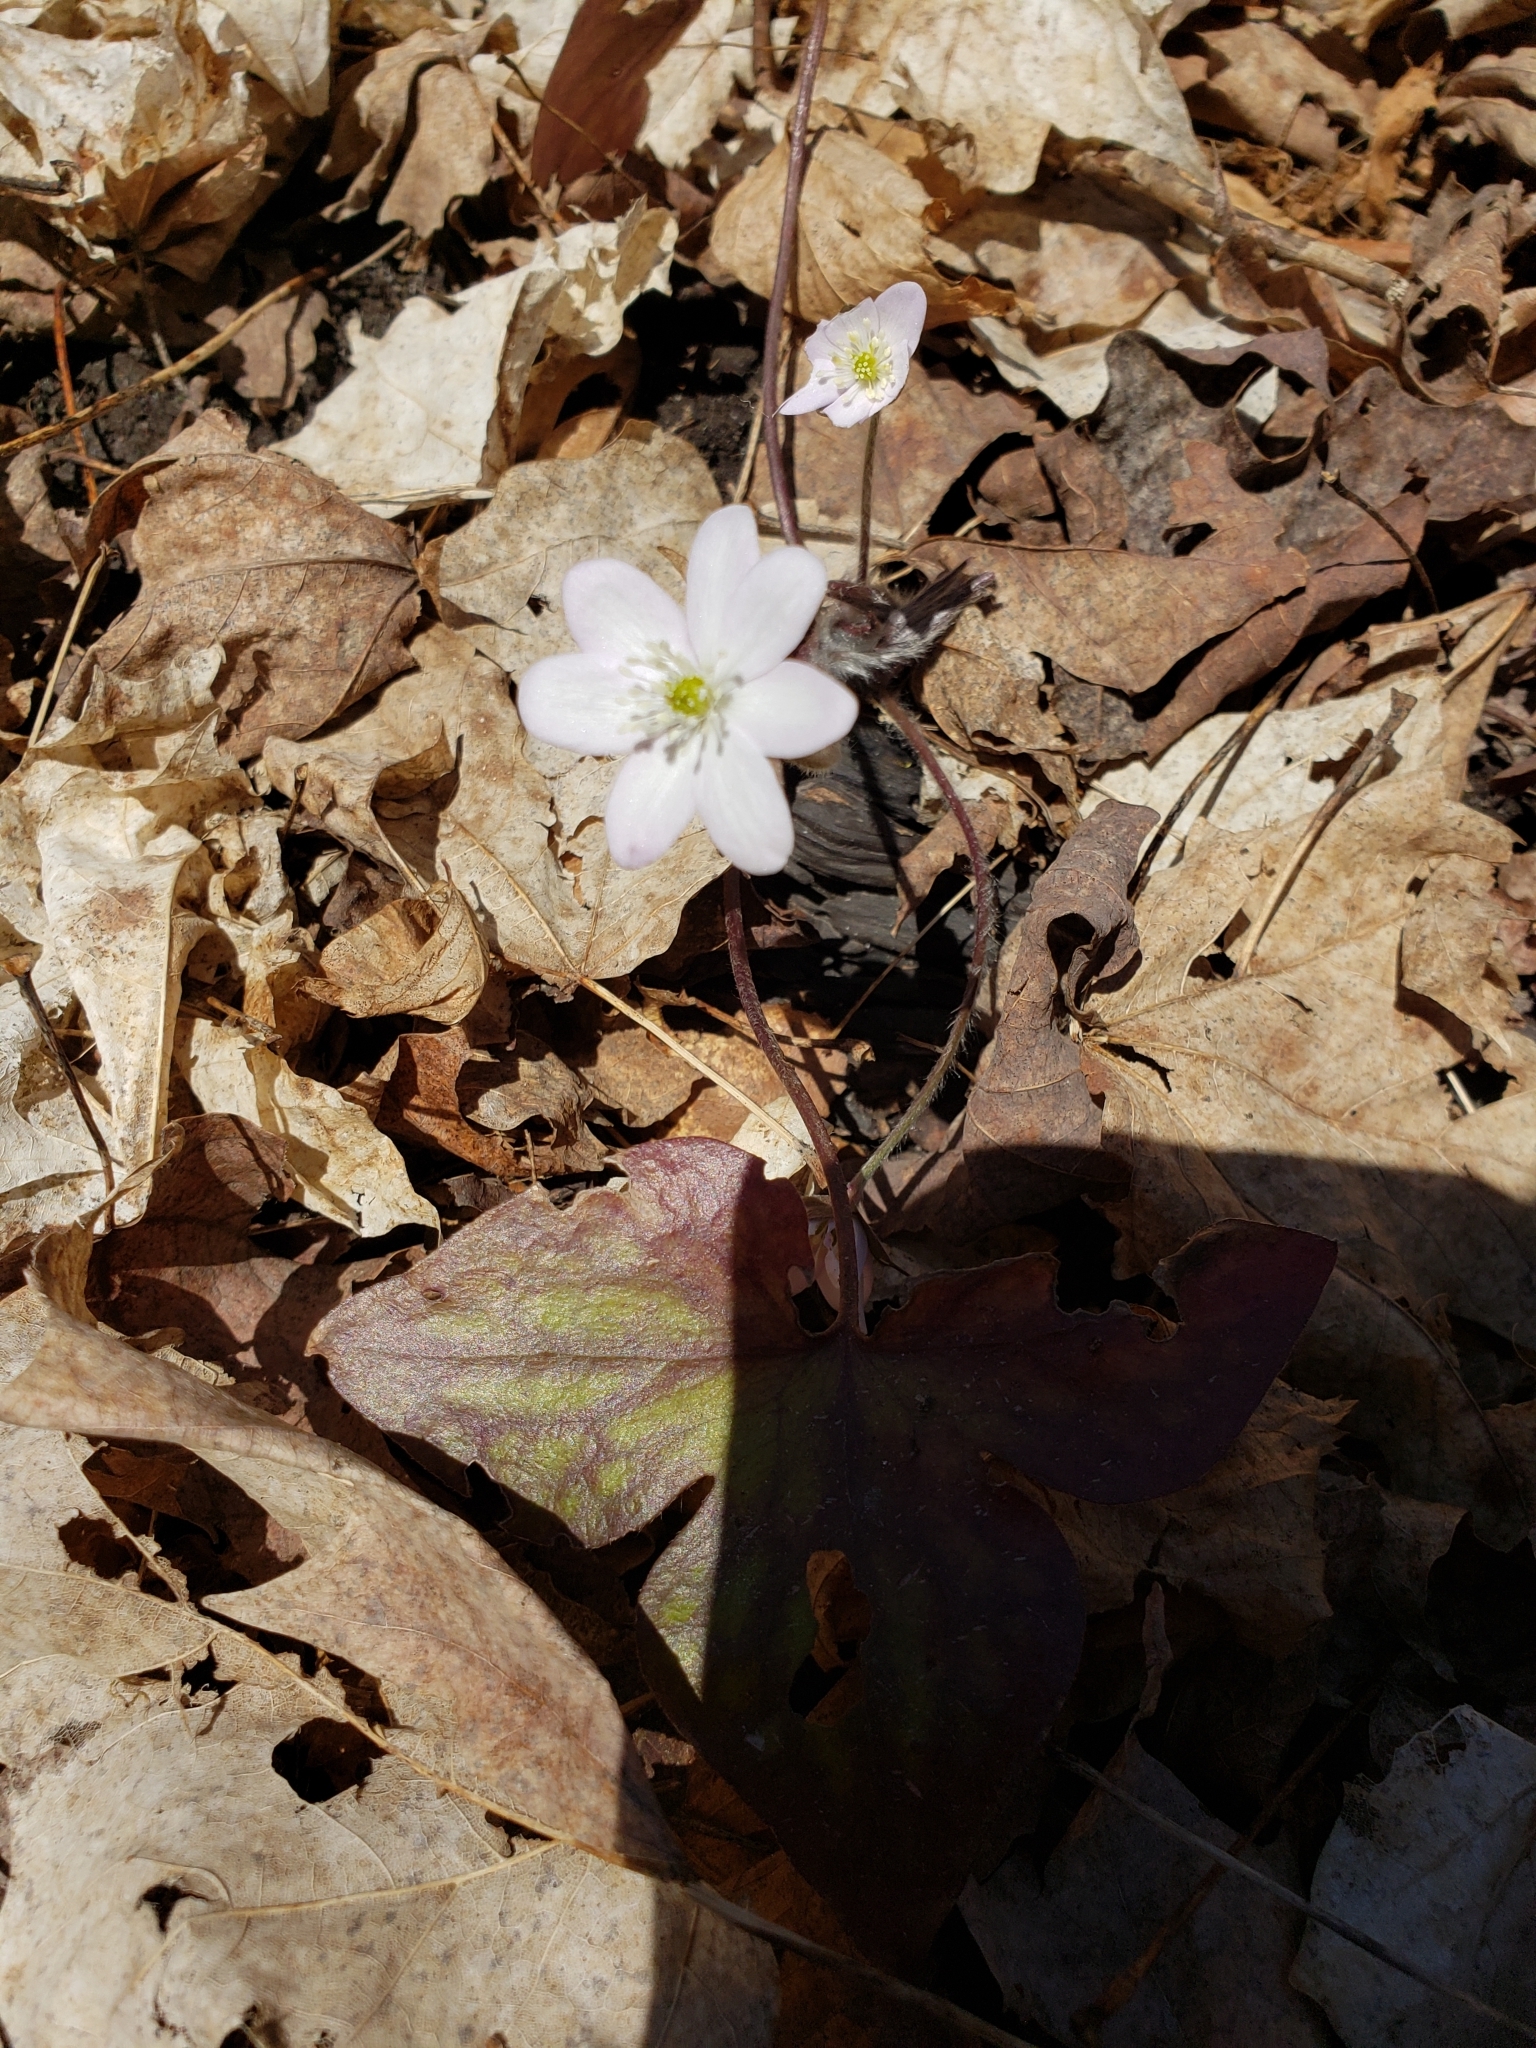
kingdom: Plantae
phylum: Tracheophyta
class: Magnoliopsida
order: Ranunculales
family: Ranunculaceae
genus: Hepatica
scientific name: Hepatica acutiloba
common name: Sharp-lobed hepatica
